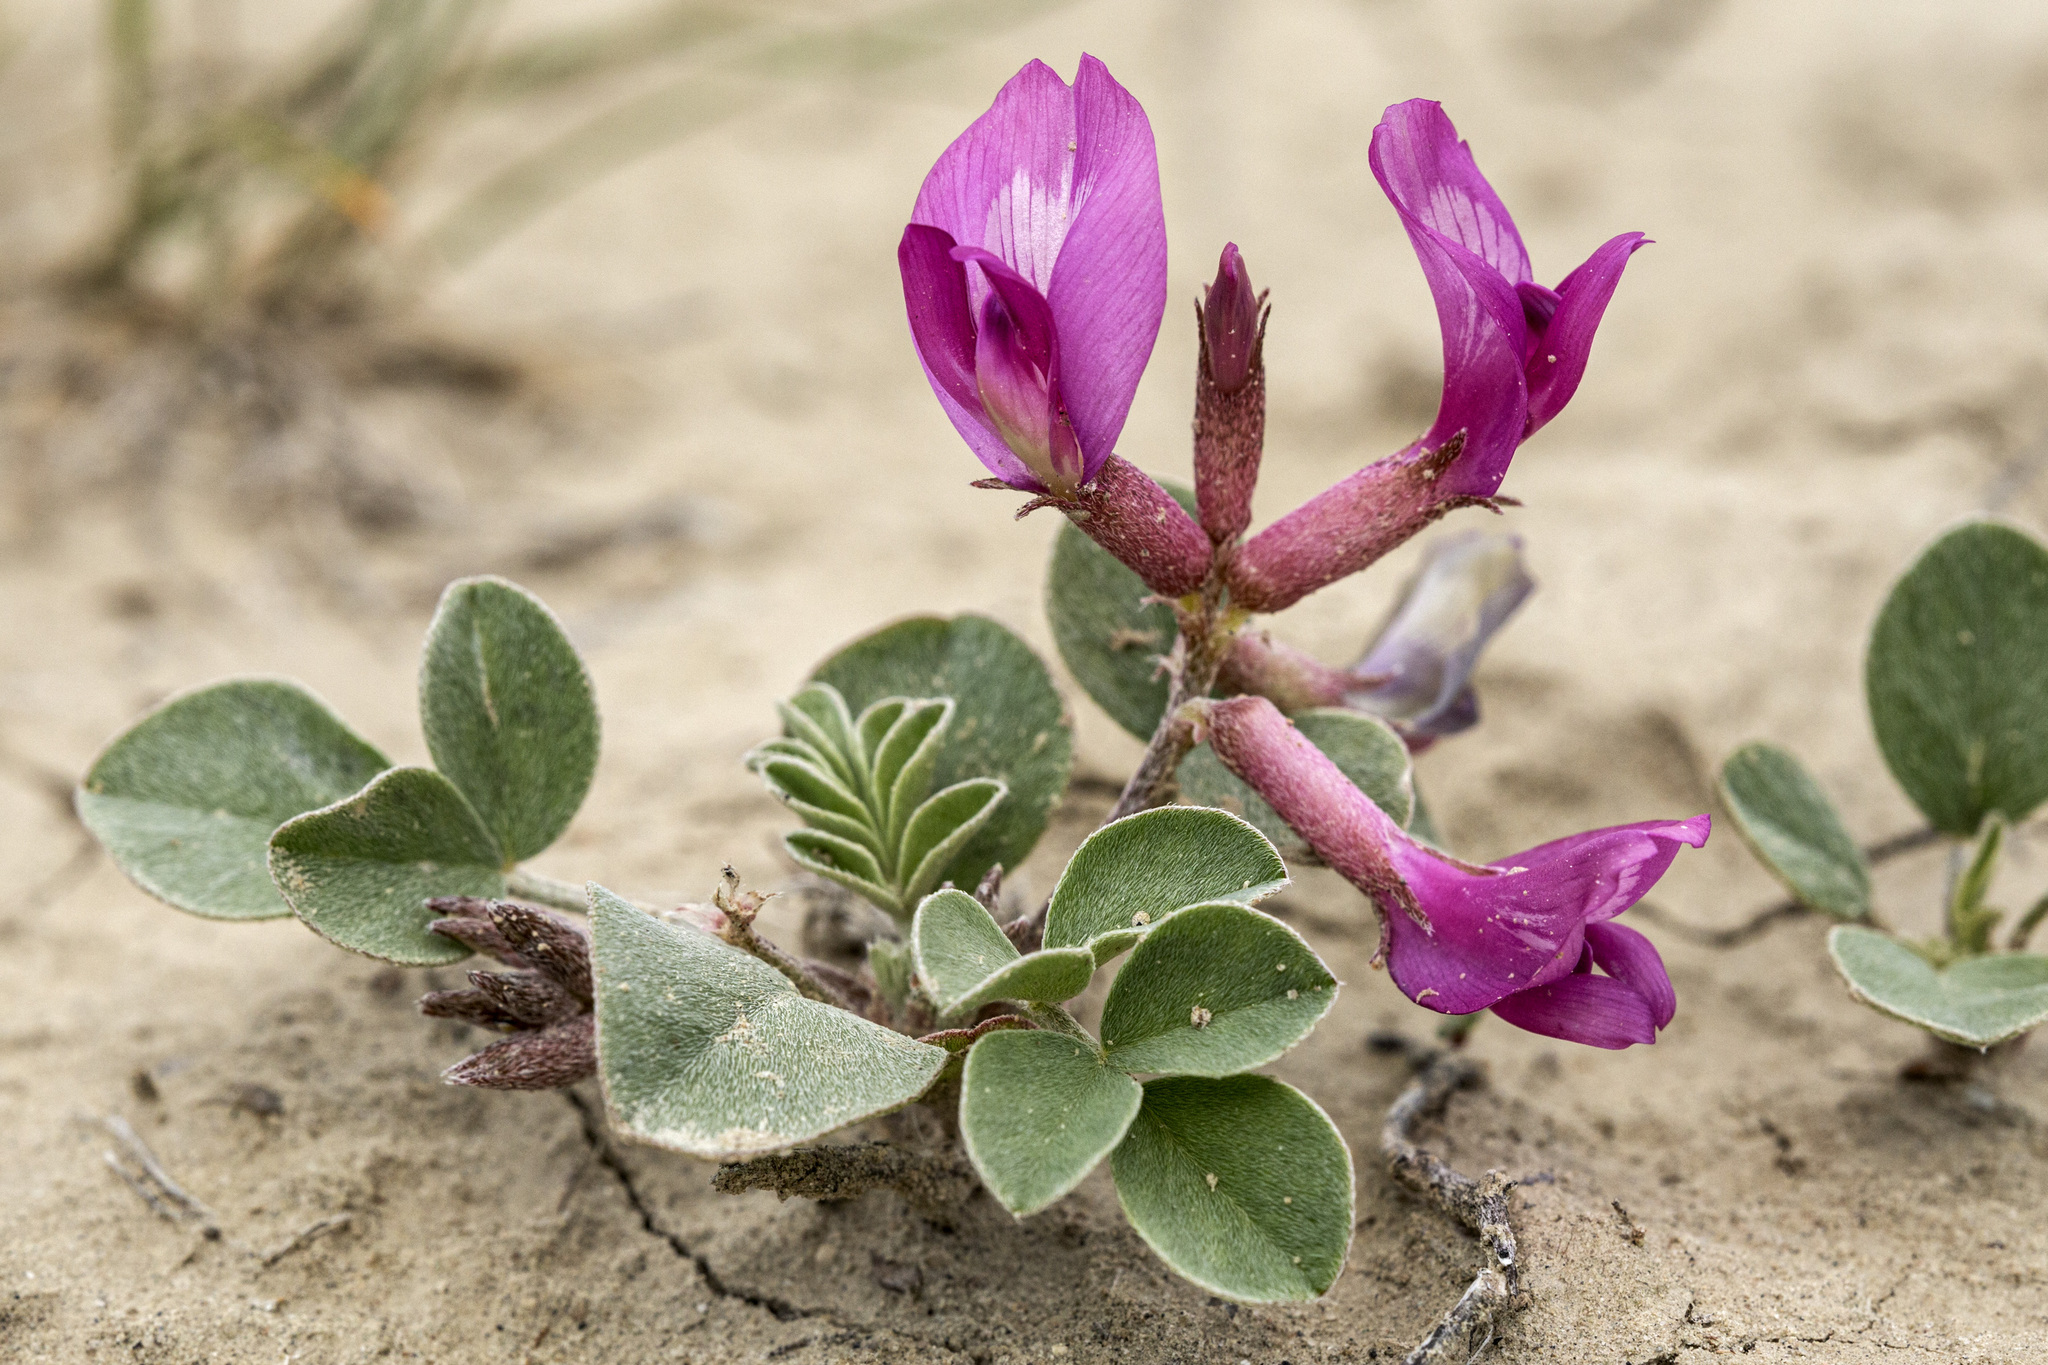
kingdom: Plantae
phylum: Tracheophyta
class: Magnoliopsida
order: Fabales
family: Fabaceae
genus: Astragalus
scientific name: Astragalus chamaeleuce
